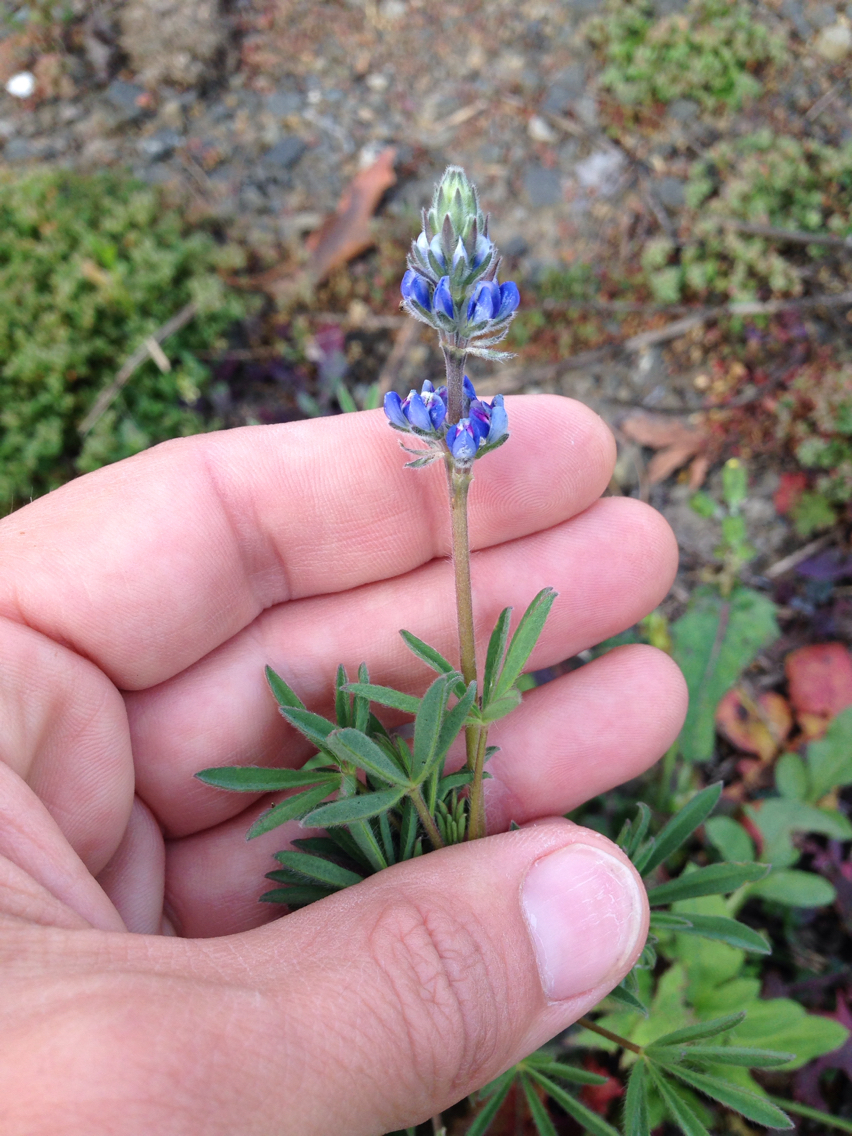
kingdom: Plantae
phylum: Tracheophyta
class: Magnoliopsida
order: Fabales
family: Fabaceae
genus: Lupinus
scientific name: Lupinus bicolor
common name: Miniature lupine
